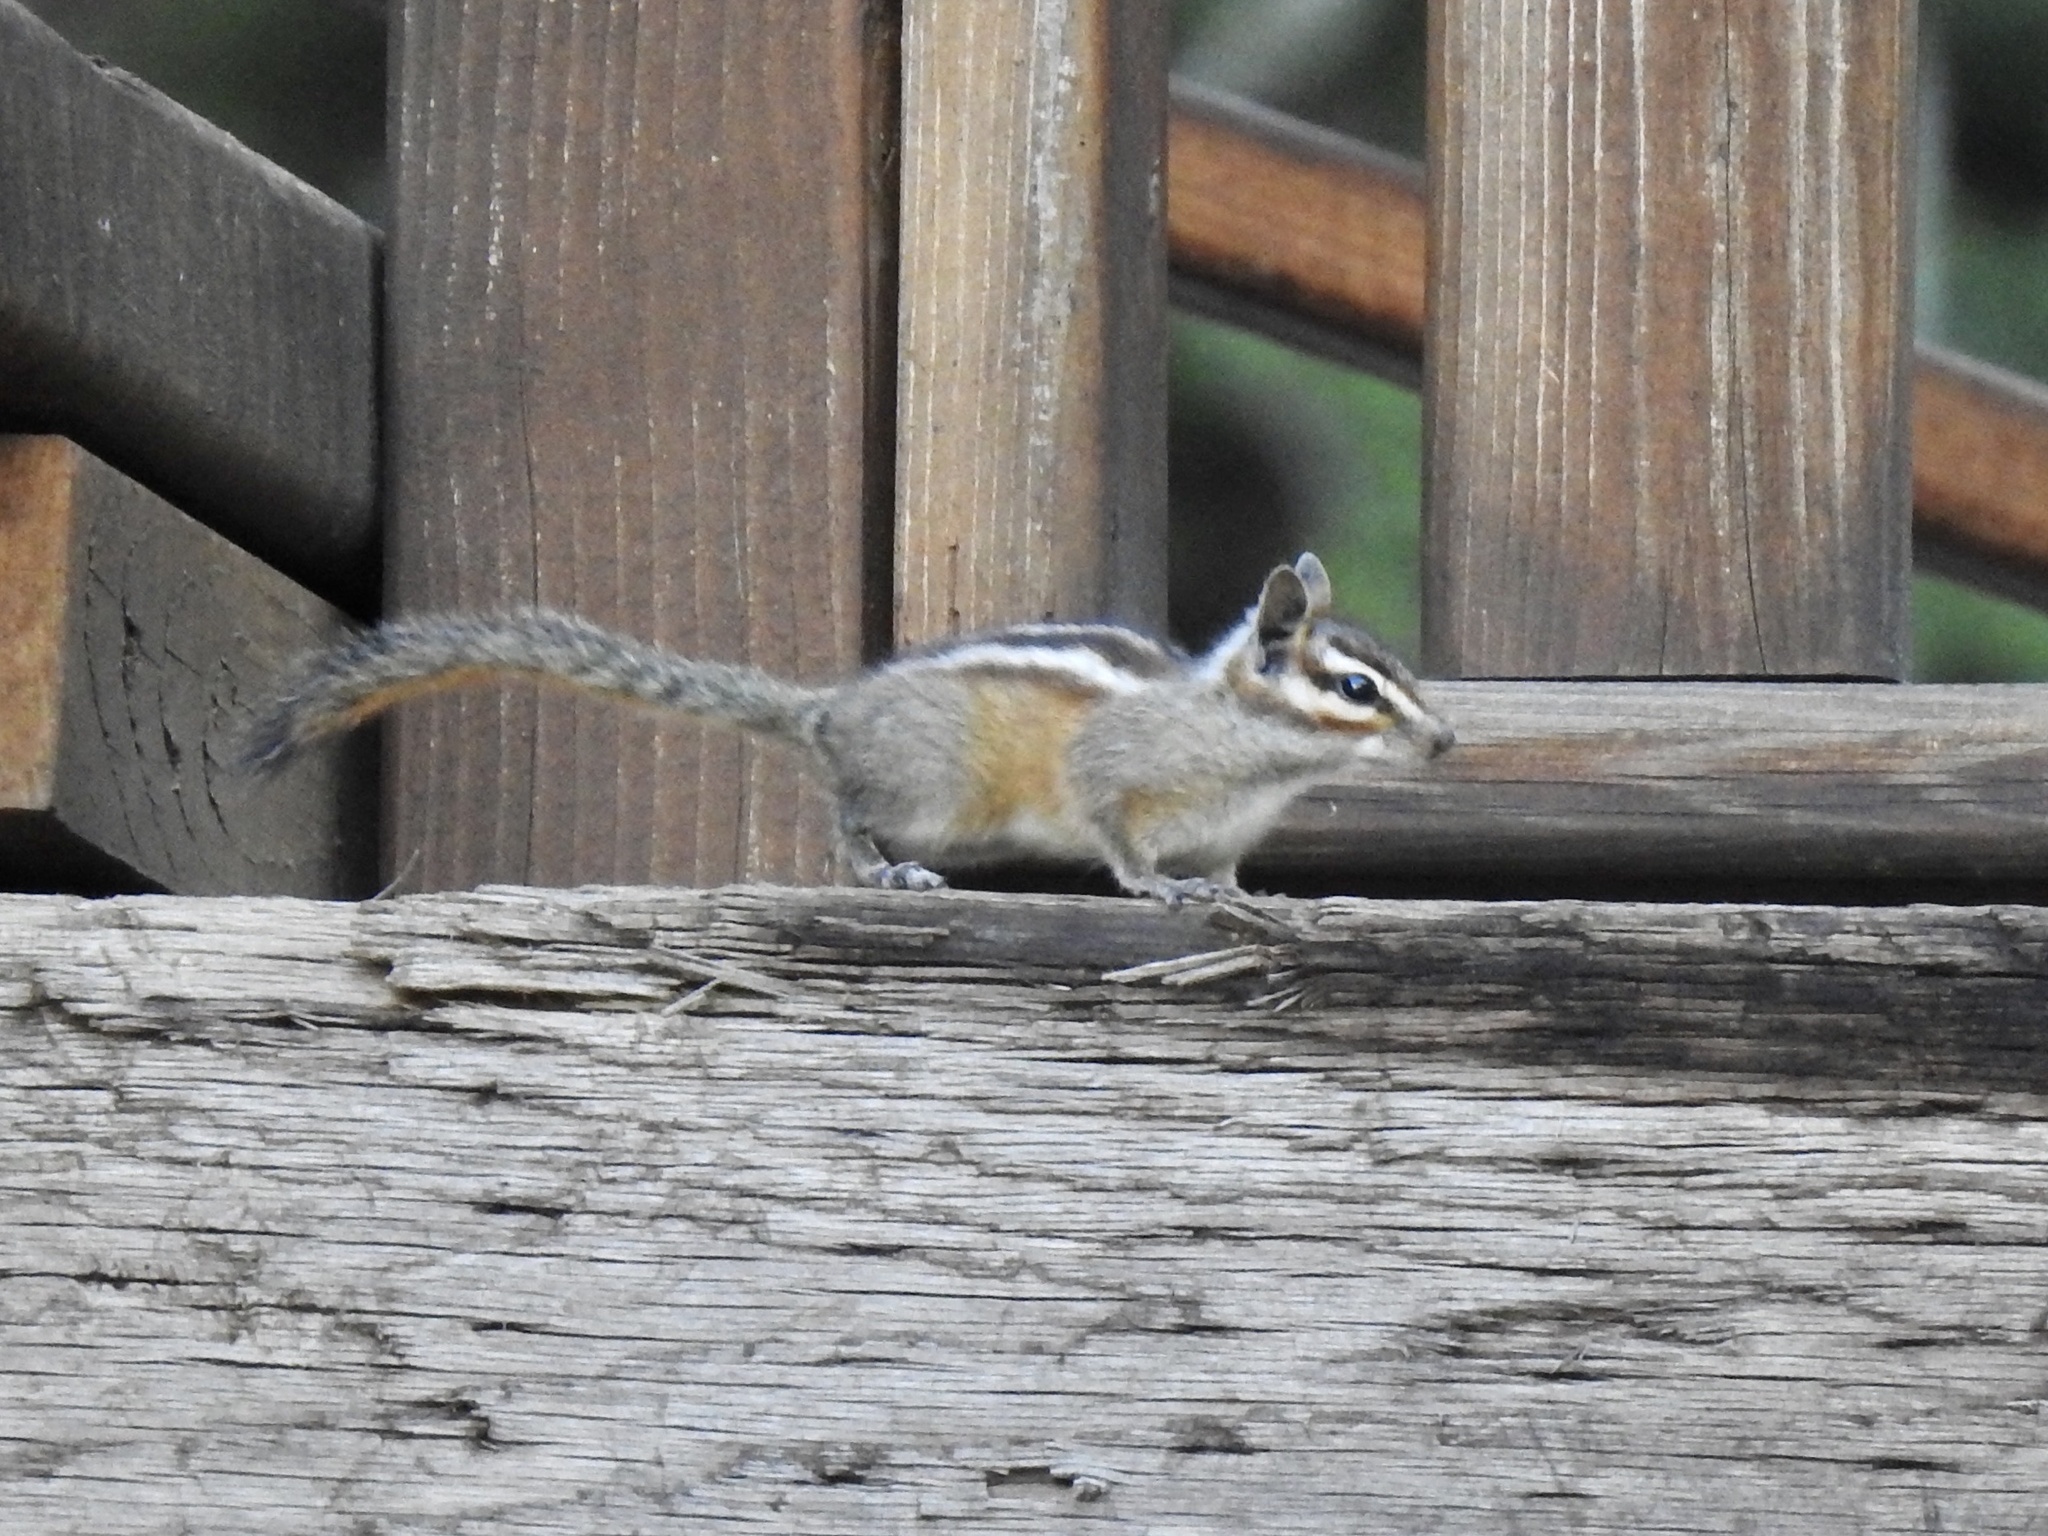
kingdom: Animalia
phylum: Chordata
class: Mammalia
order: Rodentia
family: Sciuridae
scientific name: Sciuridae
